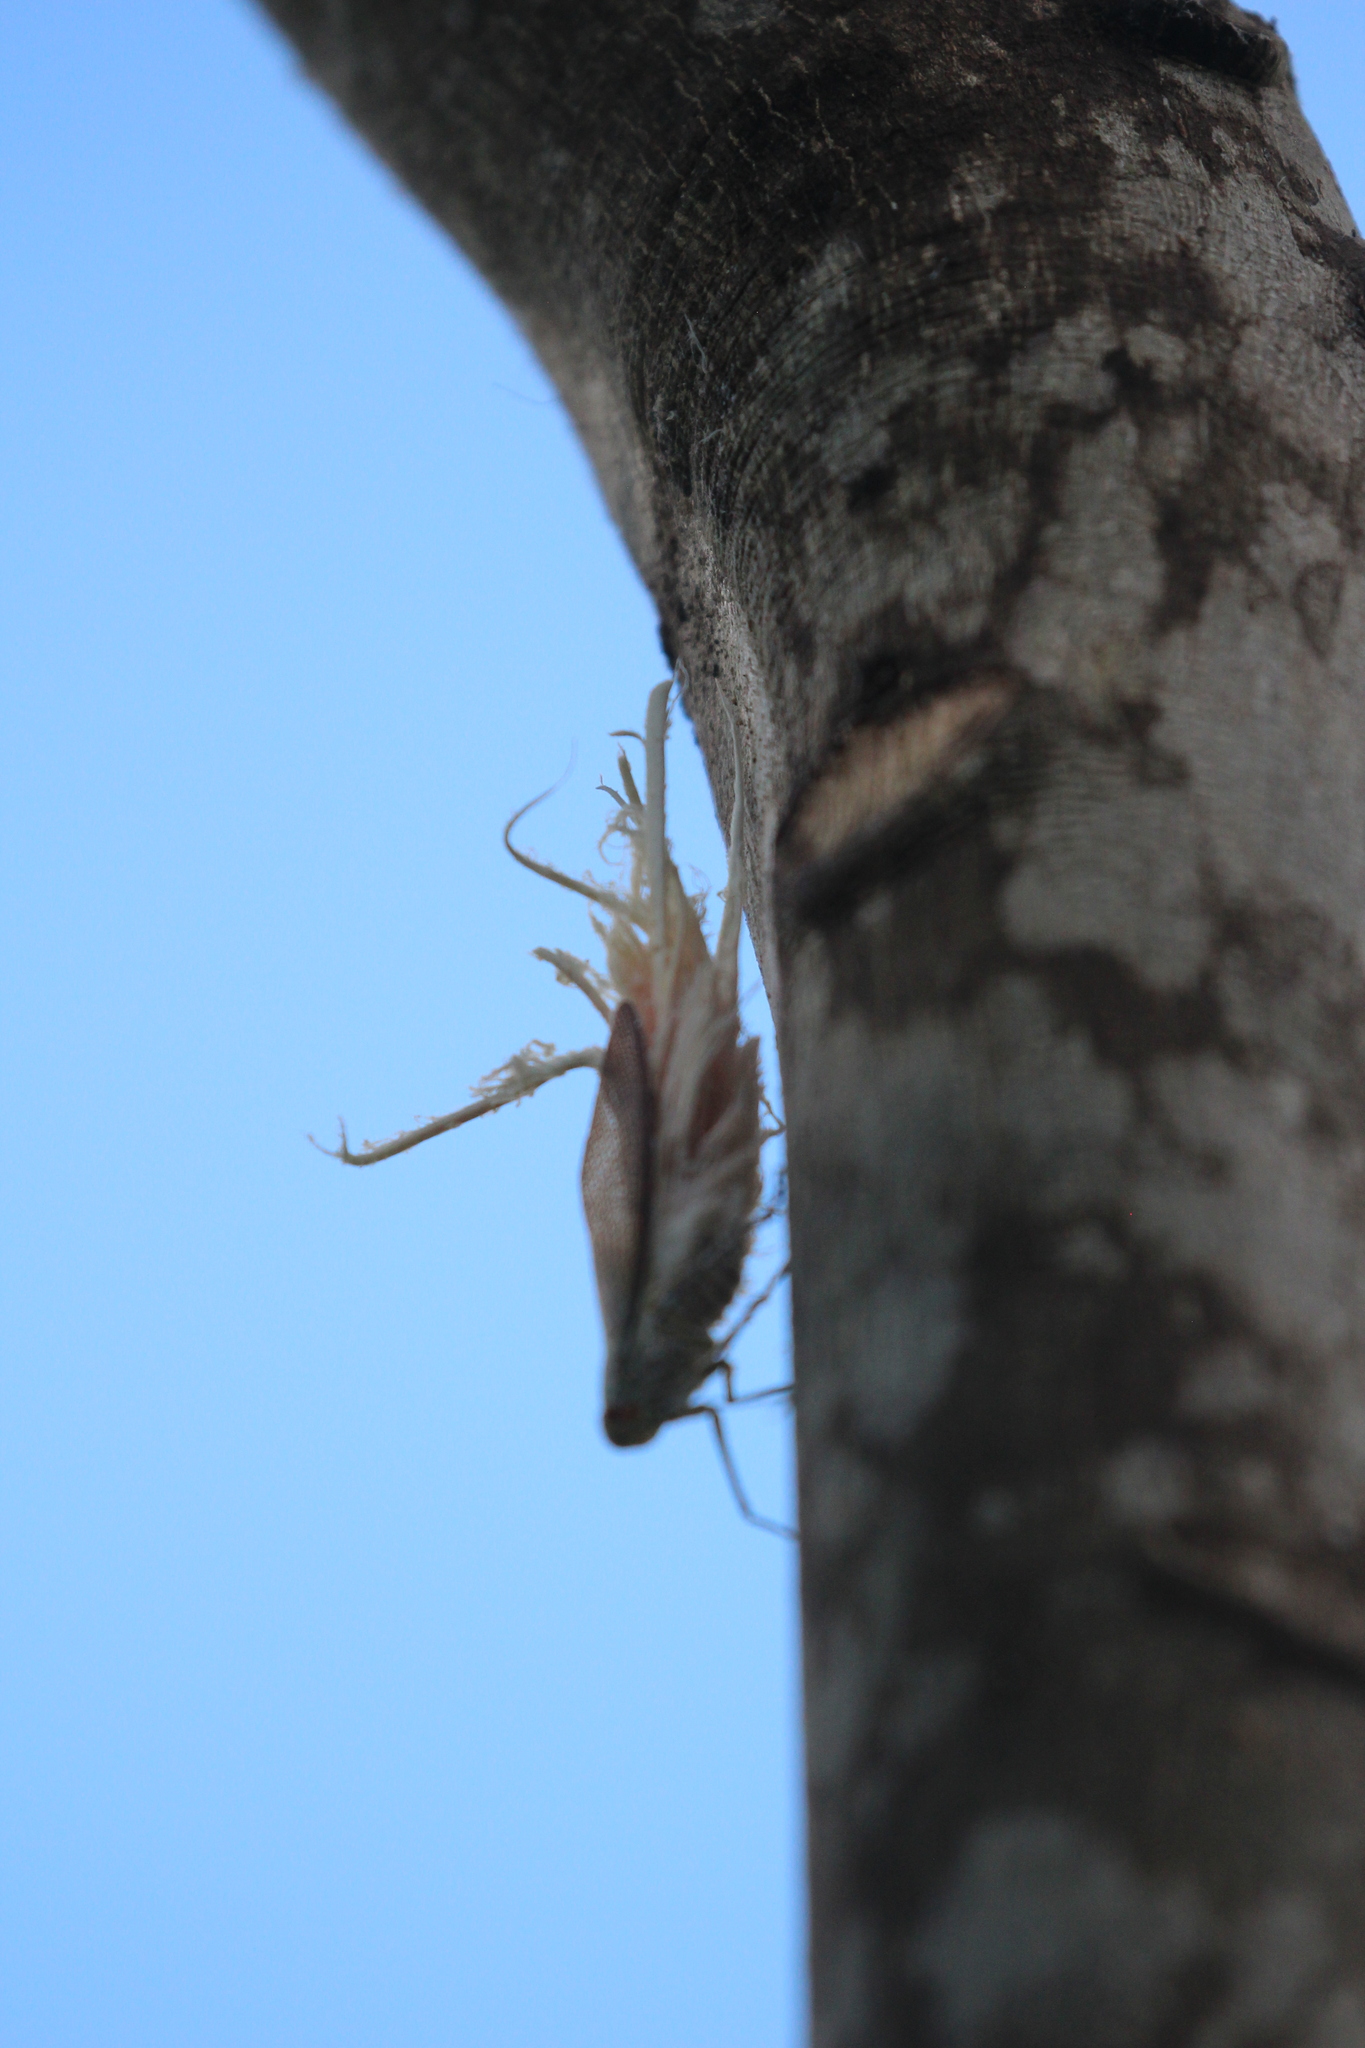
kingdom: Animalia
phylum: Arthropoda
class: Insecta
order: Hemiptera
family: Fulgoridae
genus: Pterodictya
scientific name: Pterodictya reticularis
